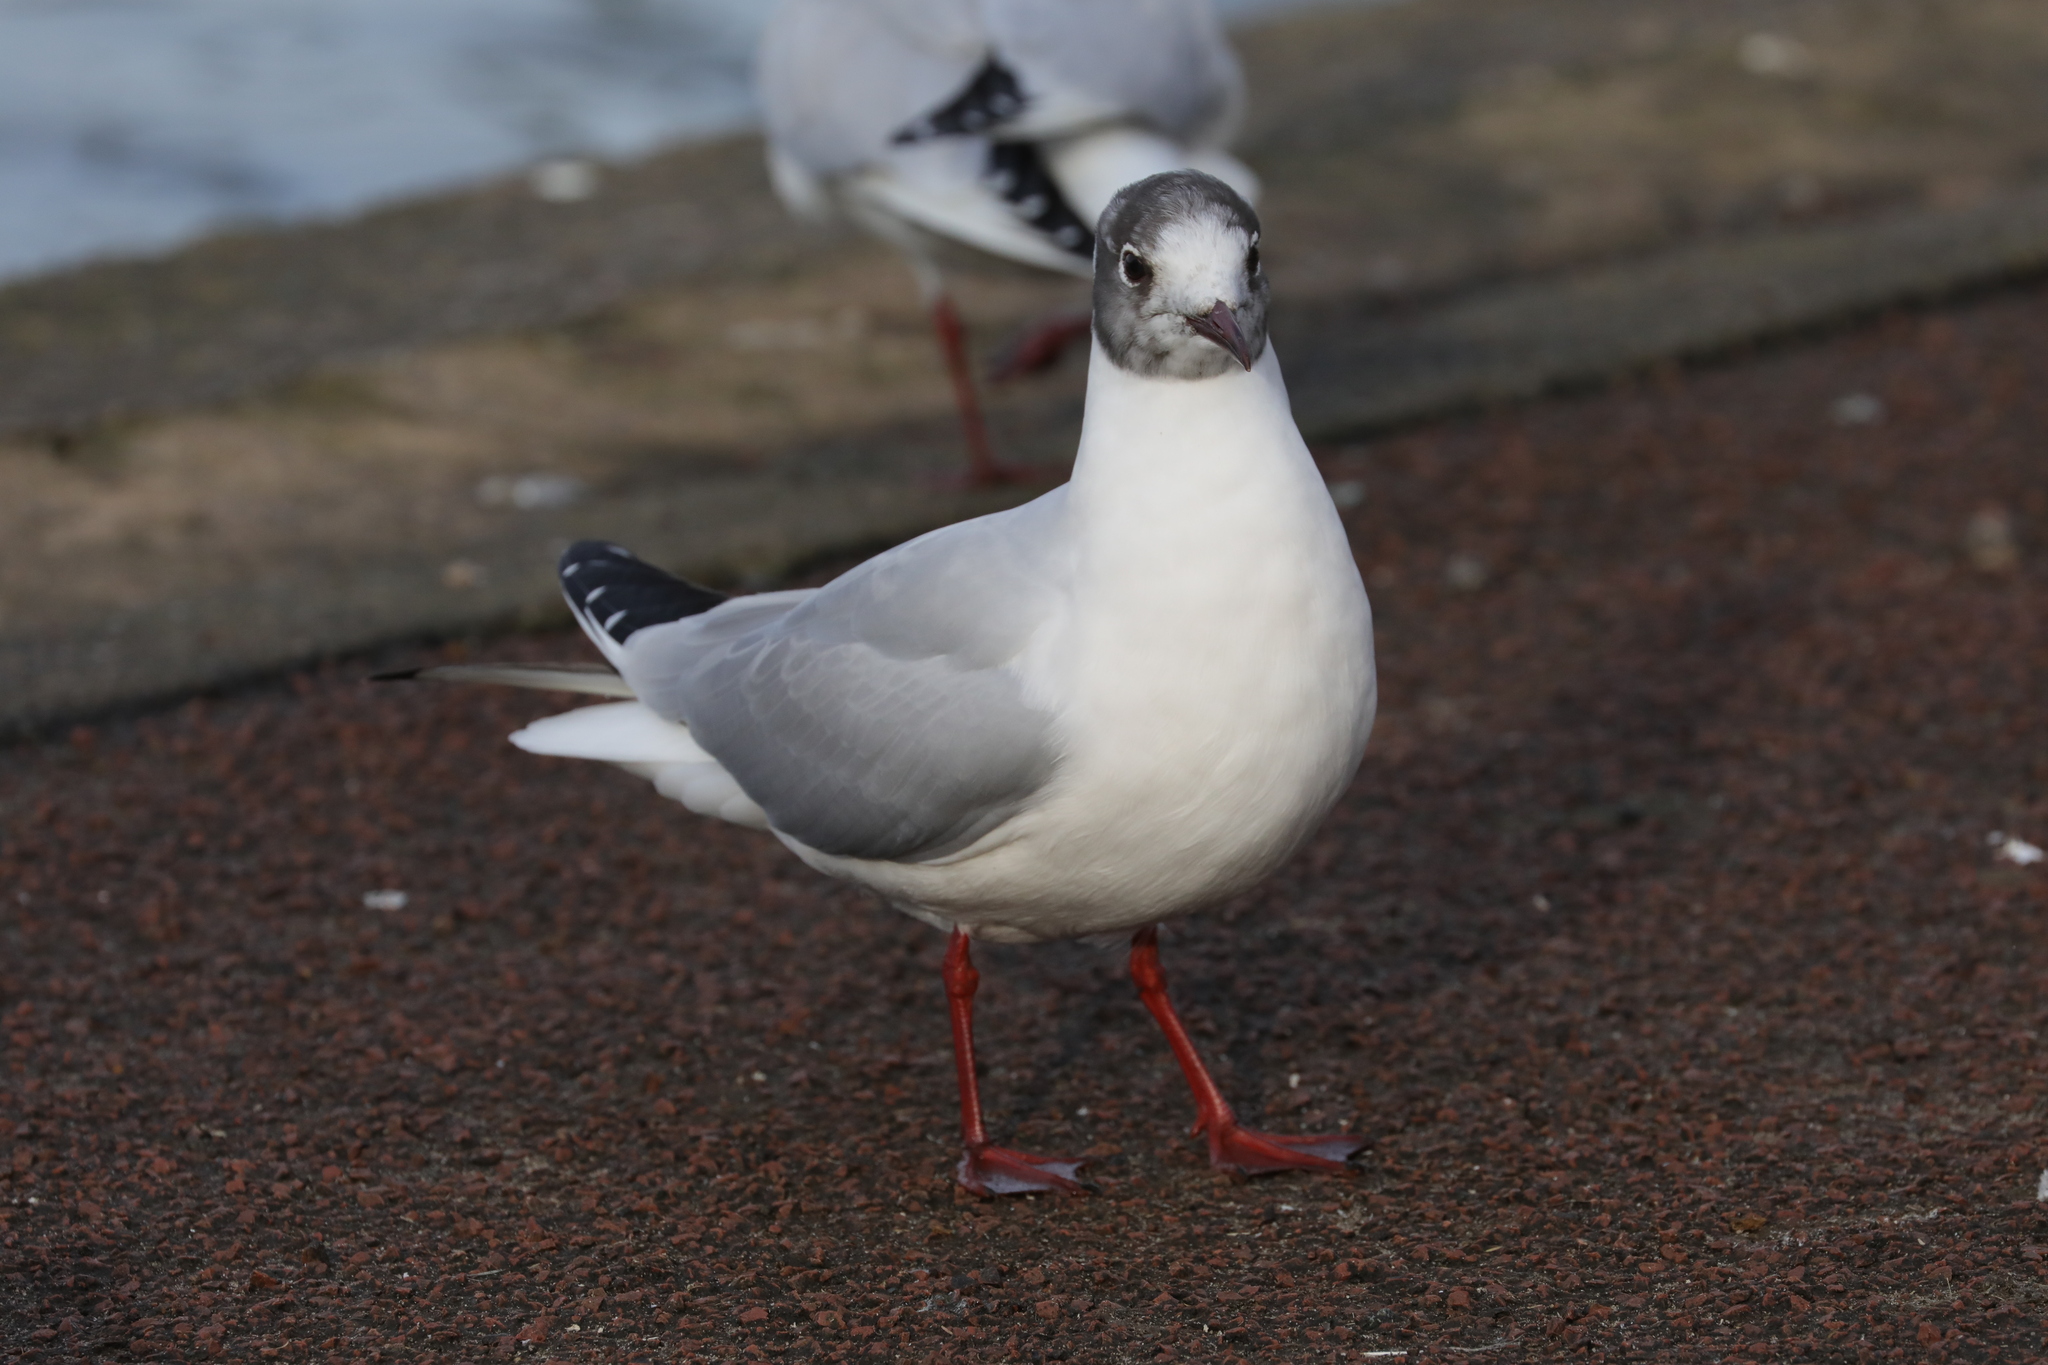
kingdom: Animalia
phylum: Chordata
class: Aves
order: Charadriiformes
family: Laridae
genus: Chroicocephalus
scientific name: Chroicocephalus ridibundus
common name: Black-headed gull
